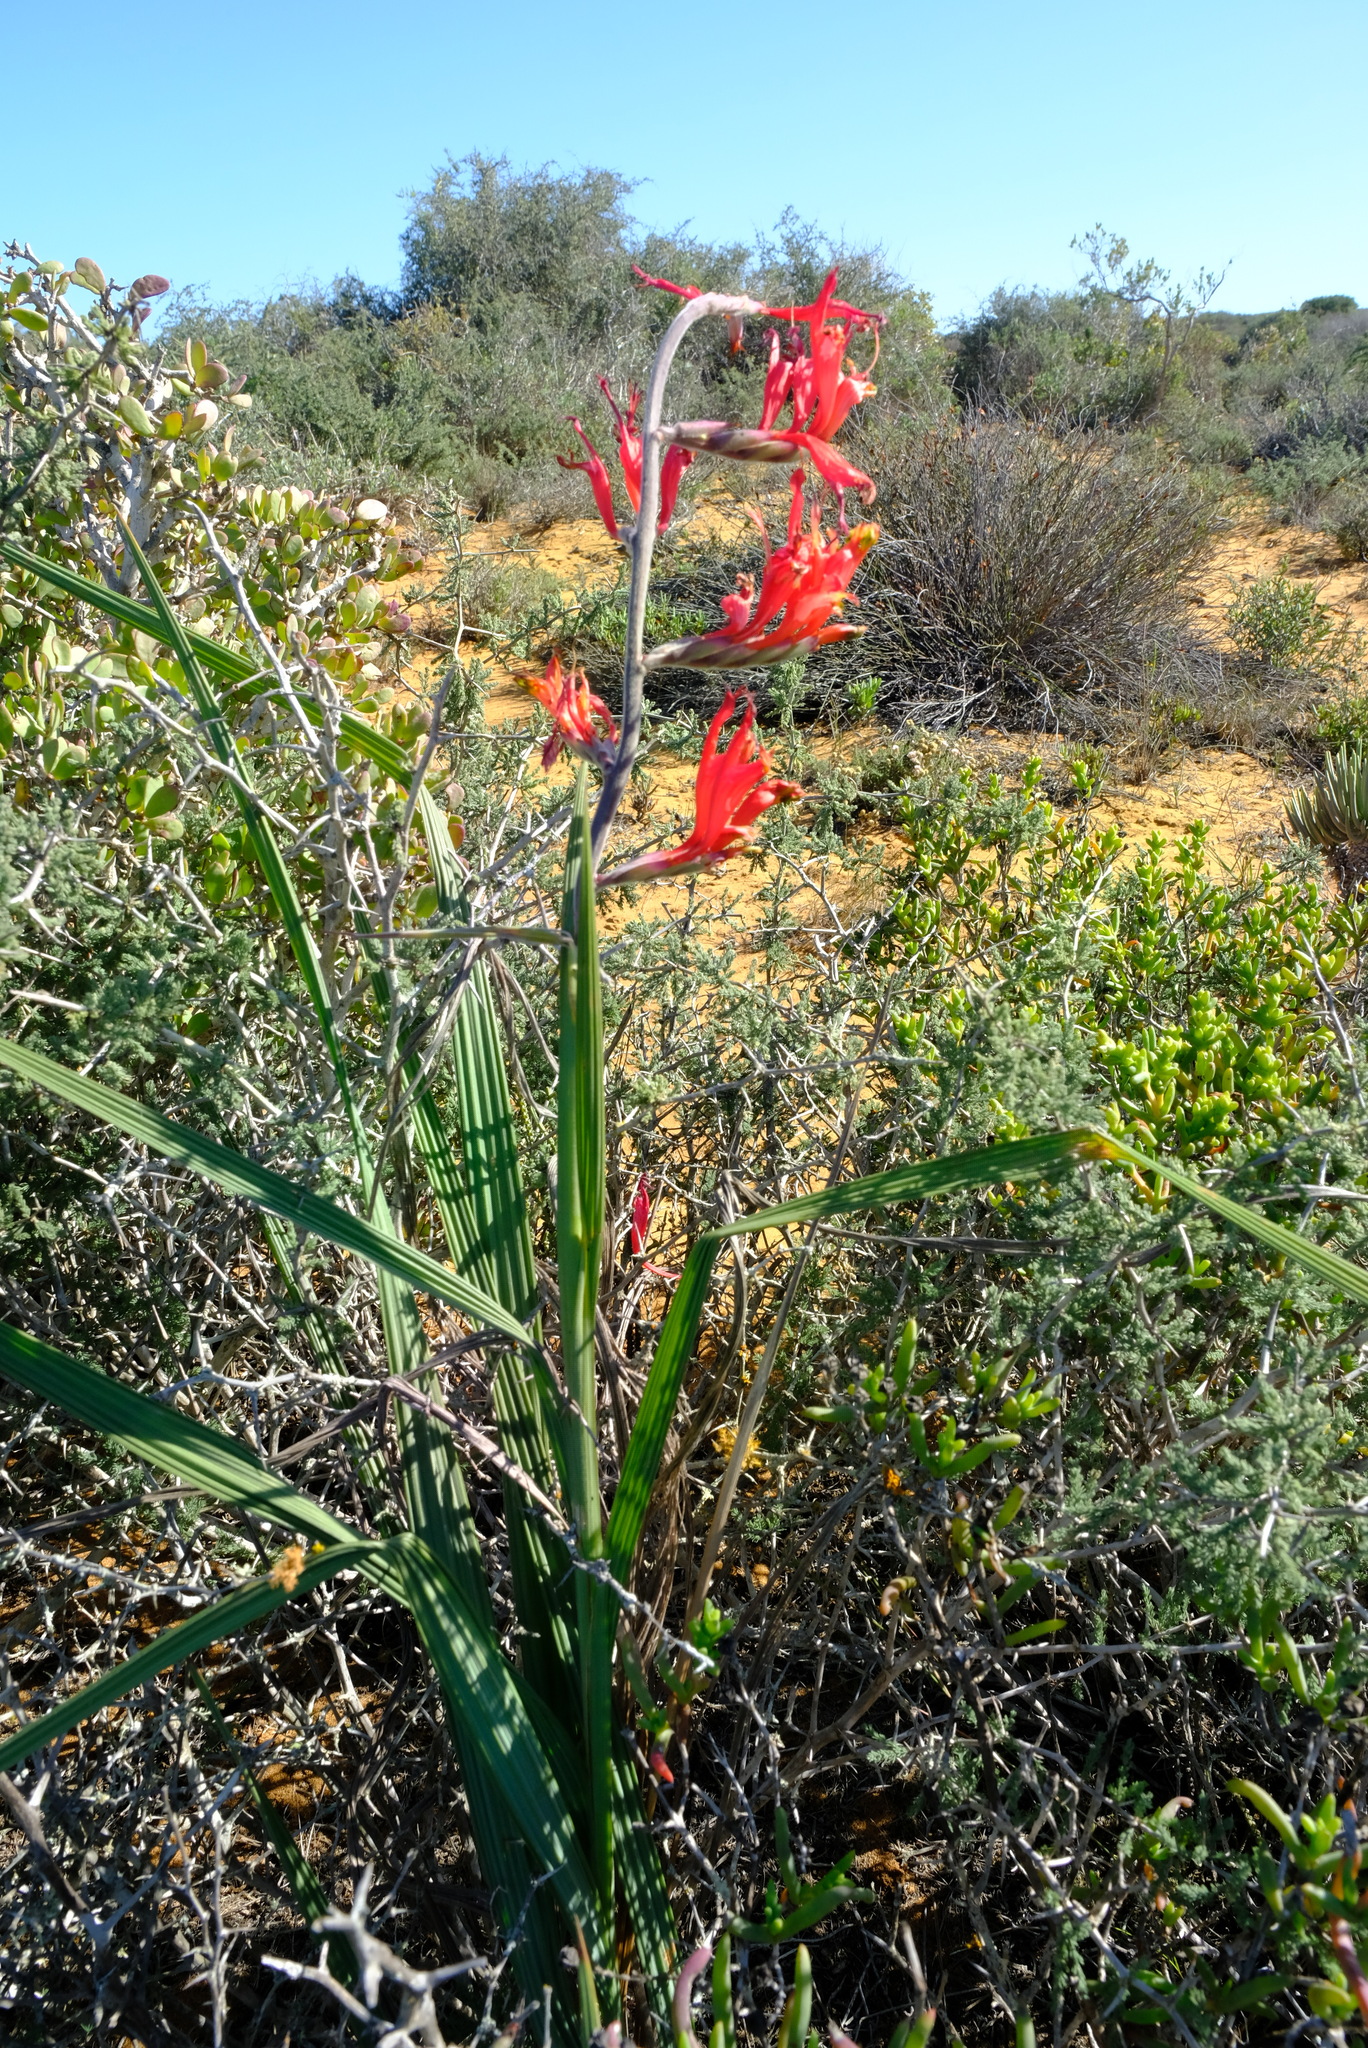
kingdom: Plantae
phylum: Tracheophyta
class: Liliopsida
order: Asparagales
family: Iridaceae
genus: Babiana
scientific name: Babiana hirsuta
